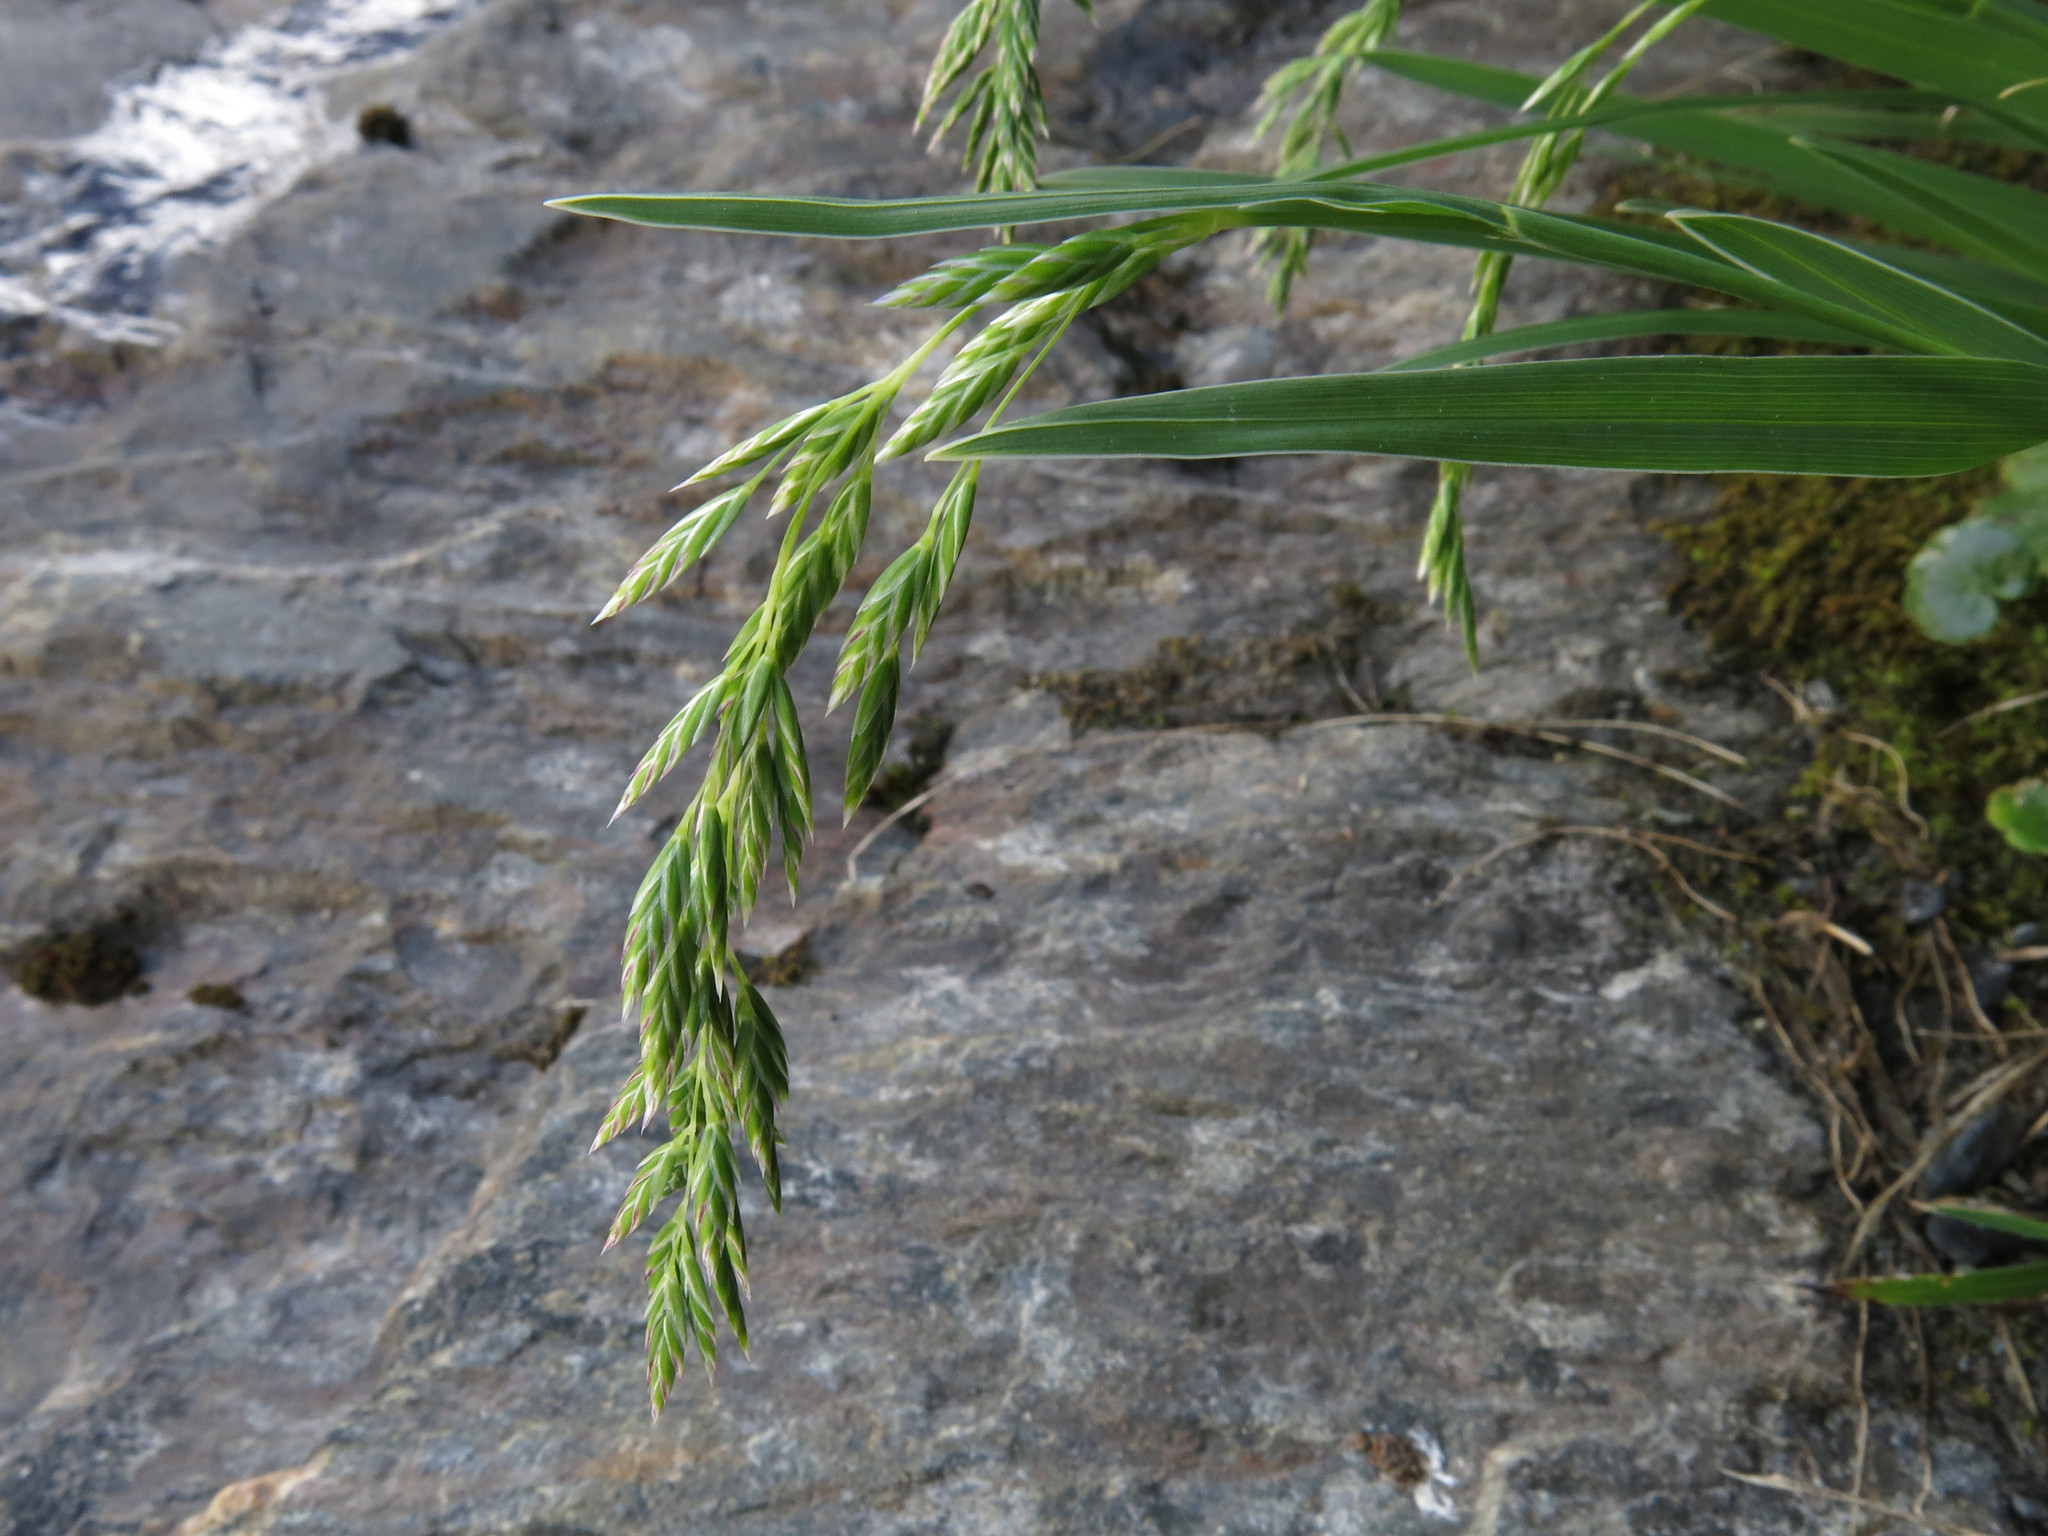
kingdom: Plantae
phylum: Tracheophyta
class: Liliopsida
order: Poales
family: Poaceae
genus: Poa
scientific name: Poa novae-zelandiae
